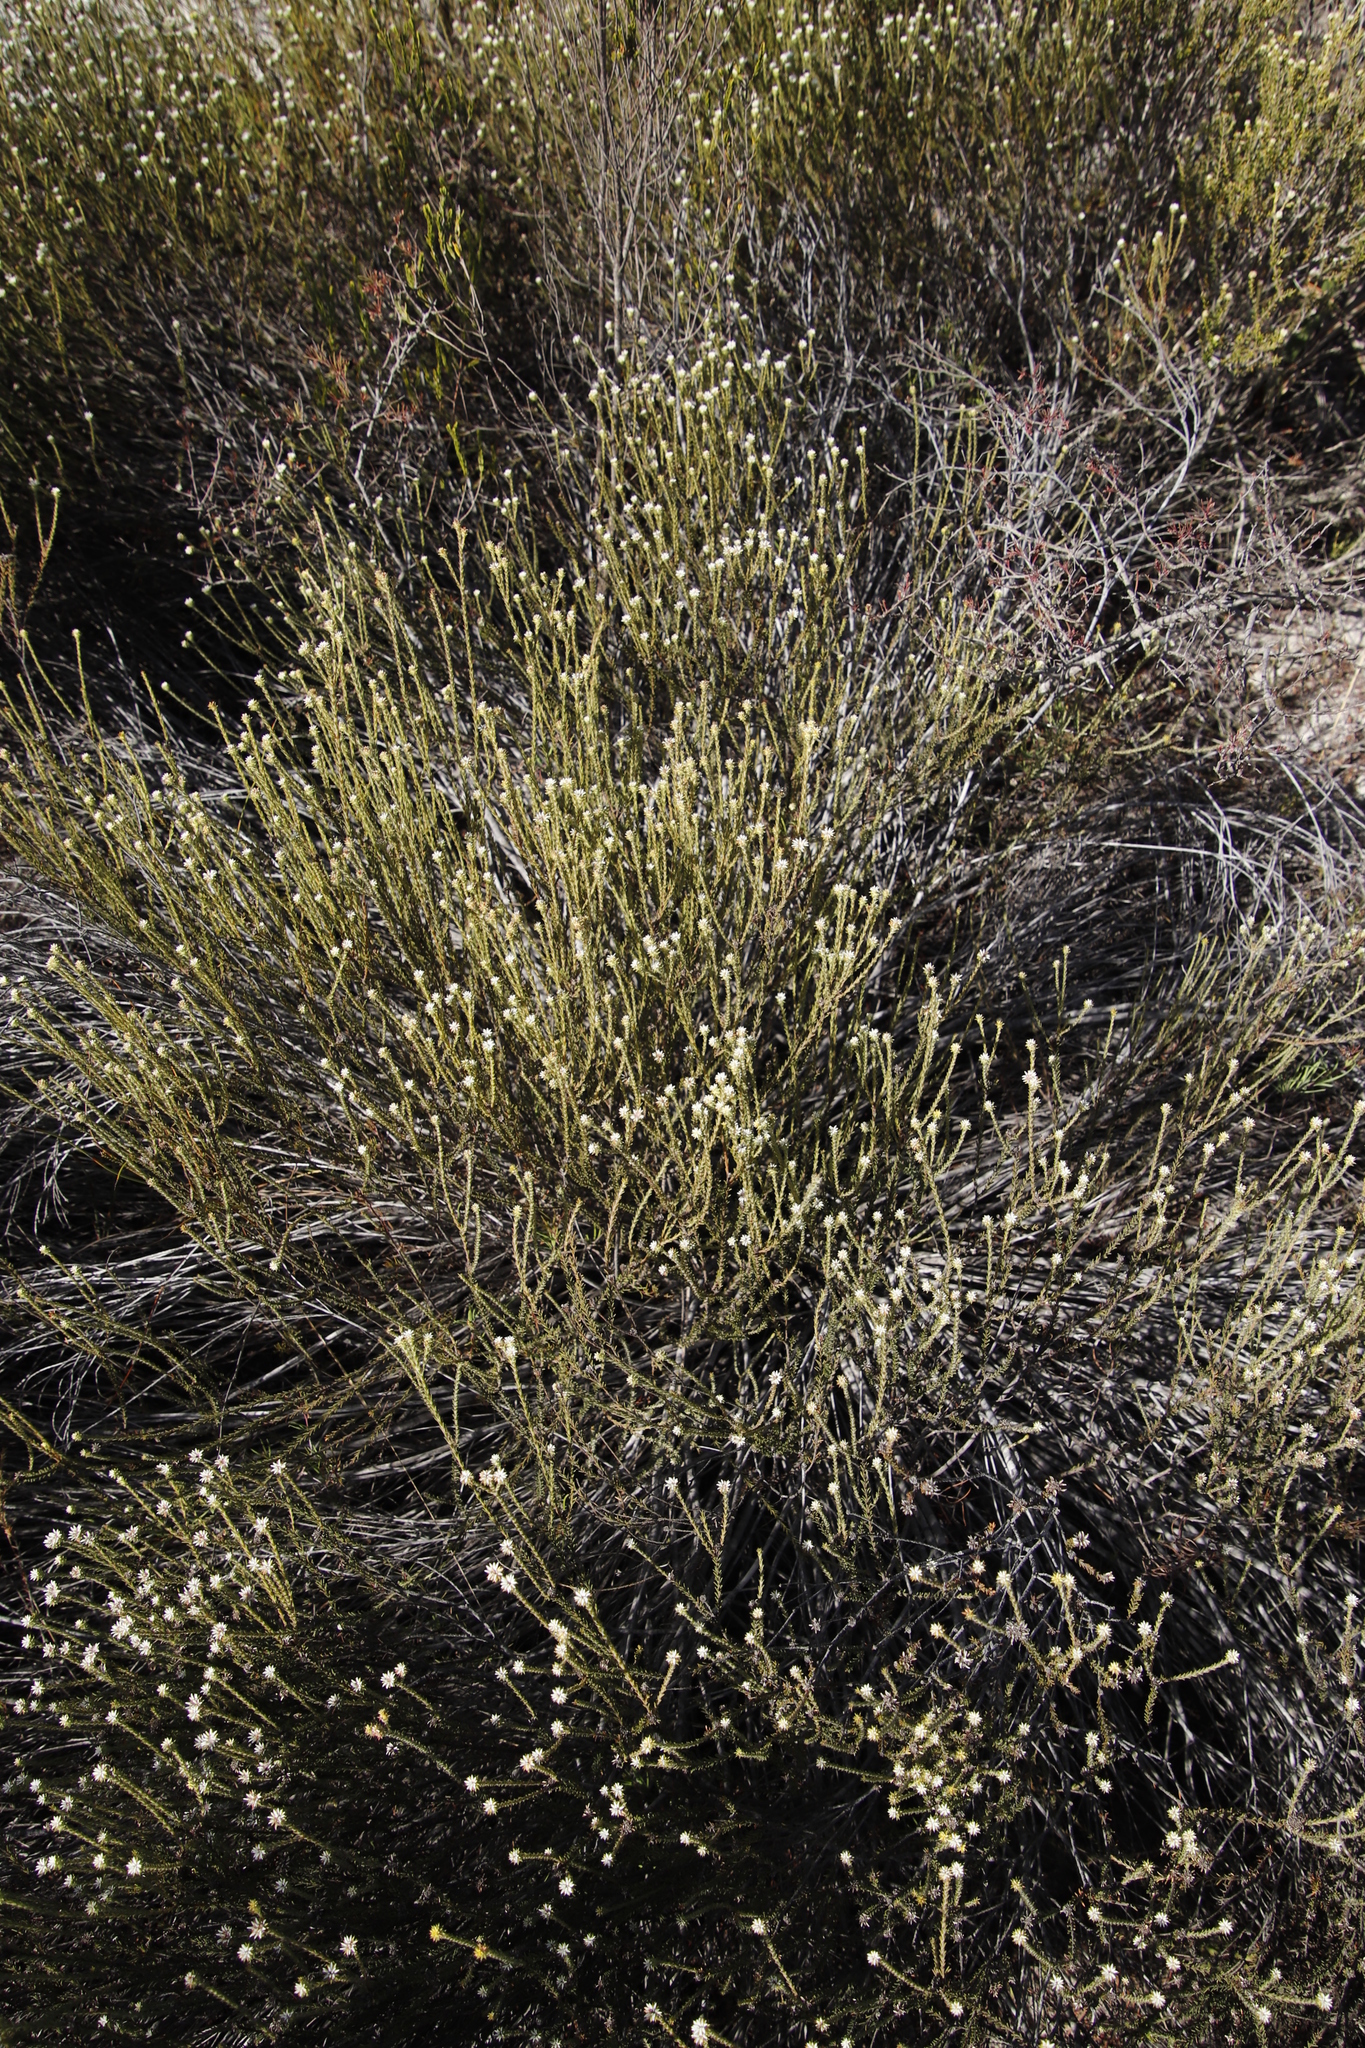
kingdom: Plantae
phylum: Tracheophyta
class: Magnoliopsida
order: Bruniales
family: Bruniaceae
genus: Staavia
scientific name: Staavia radiata
